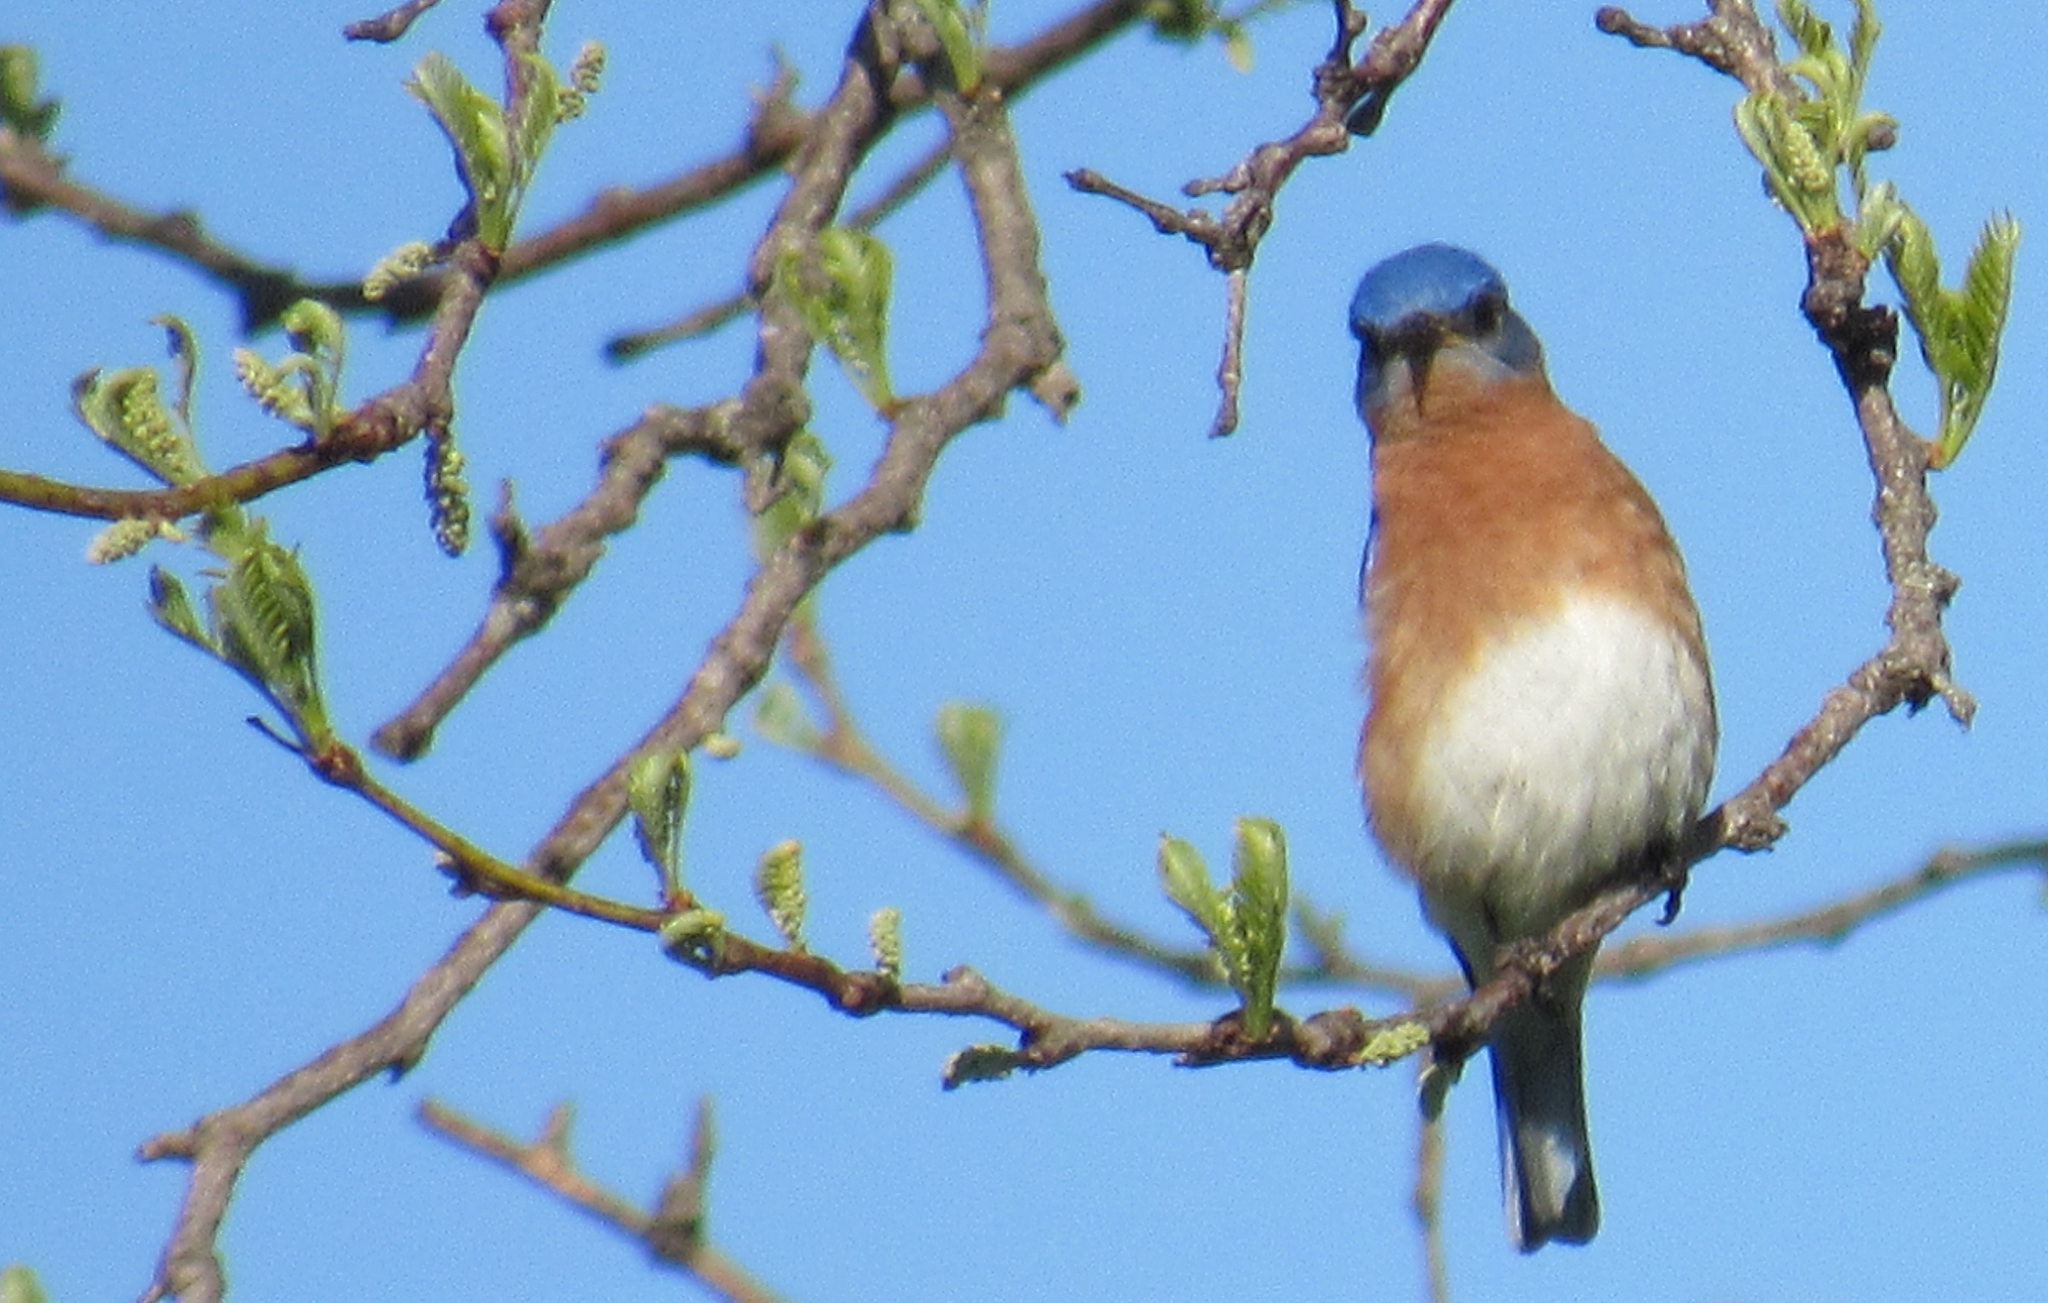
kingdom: Animalia
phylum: Chordata
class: Aves
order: Passeriformes
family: Turdidae
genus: Sialia
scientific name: Sialia sialis
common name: Eastern bluebird
